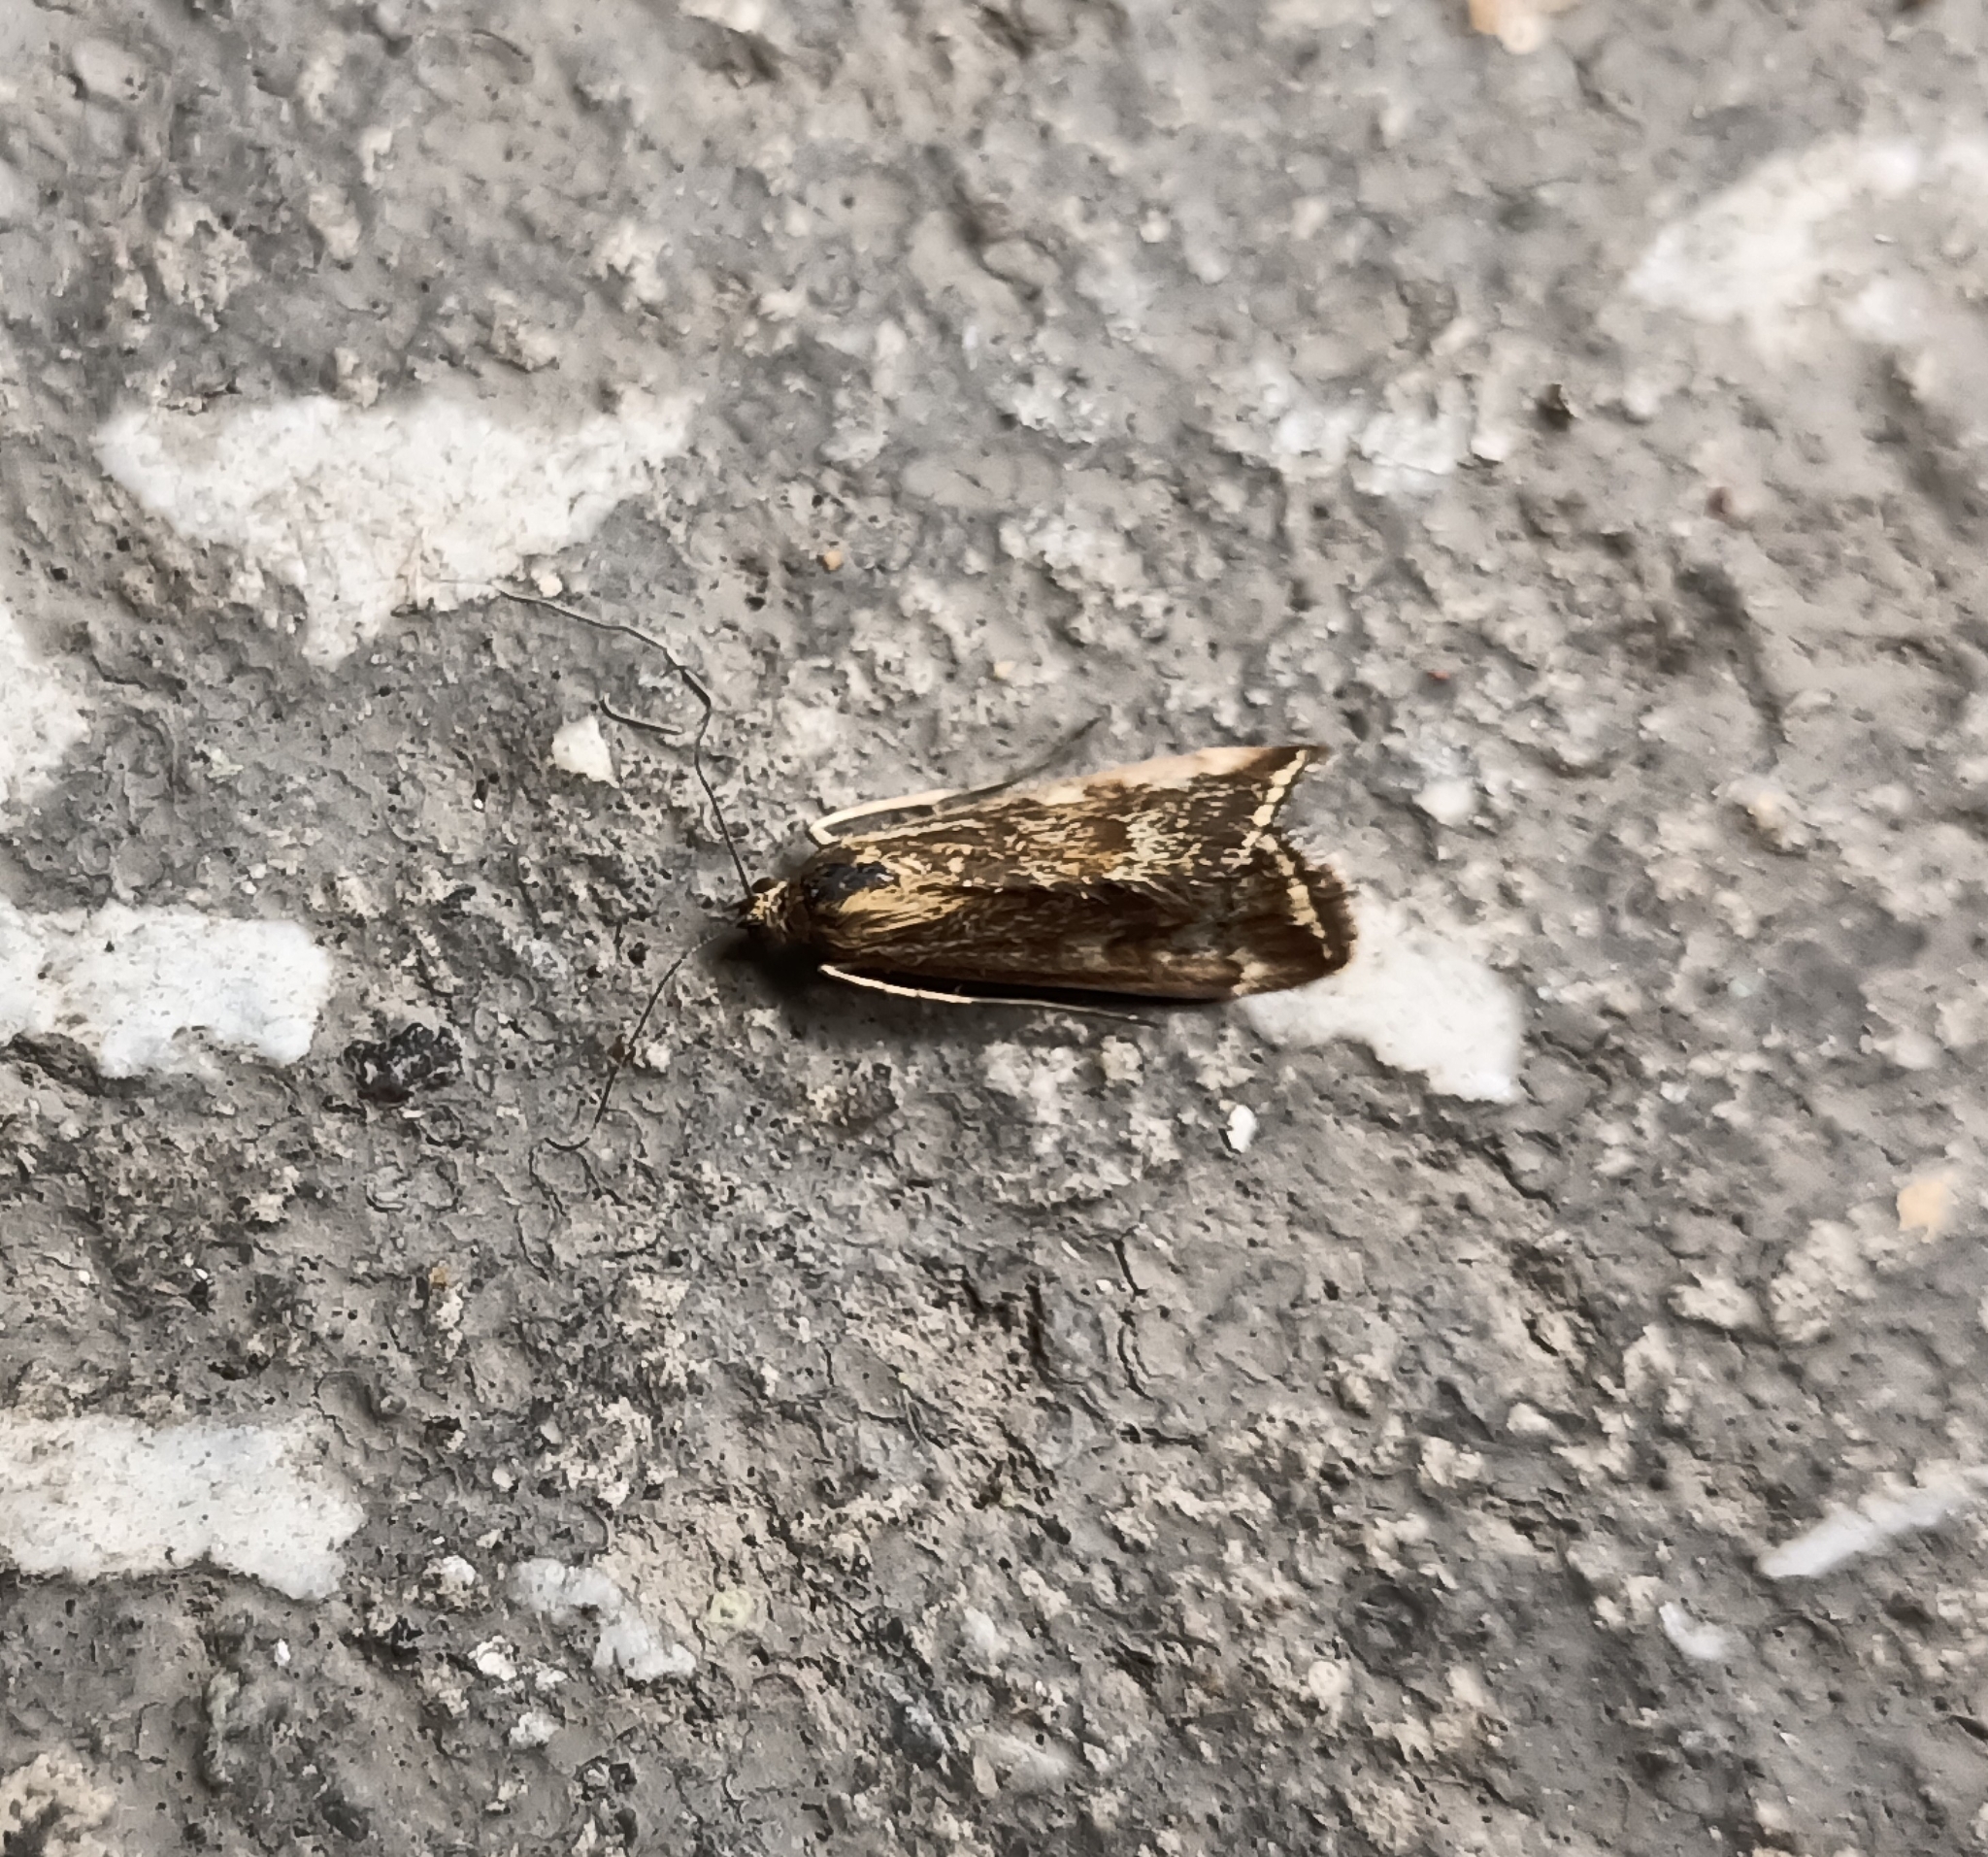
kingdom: Animalia
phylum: Arthropoda
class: Insecta
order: Lepidoptera
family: Crambidae
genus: Loxostege
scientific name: Loxostege sticticalis
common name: Crambid moth
